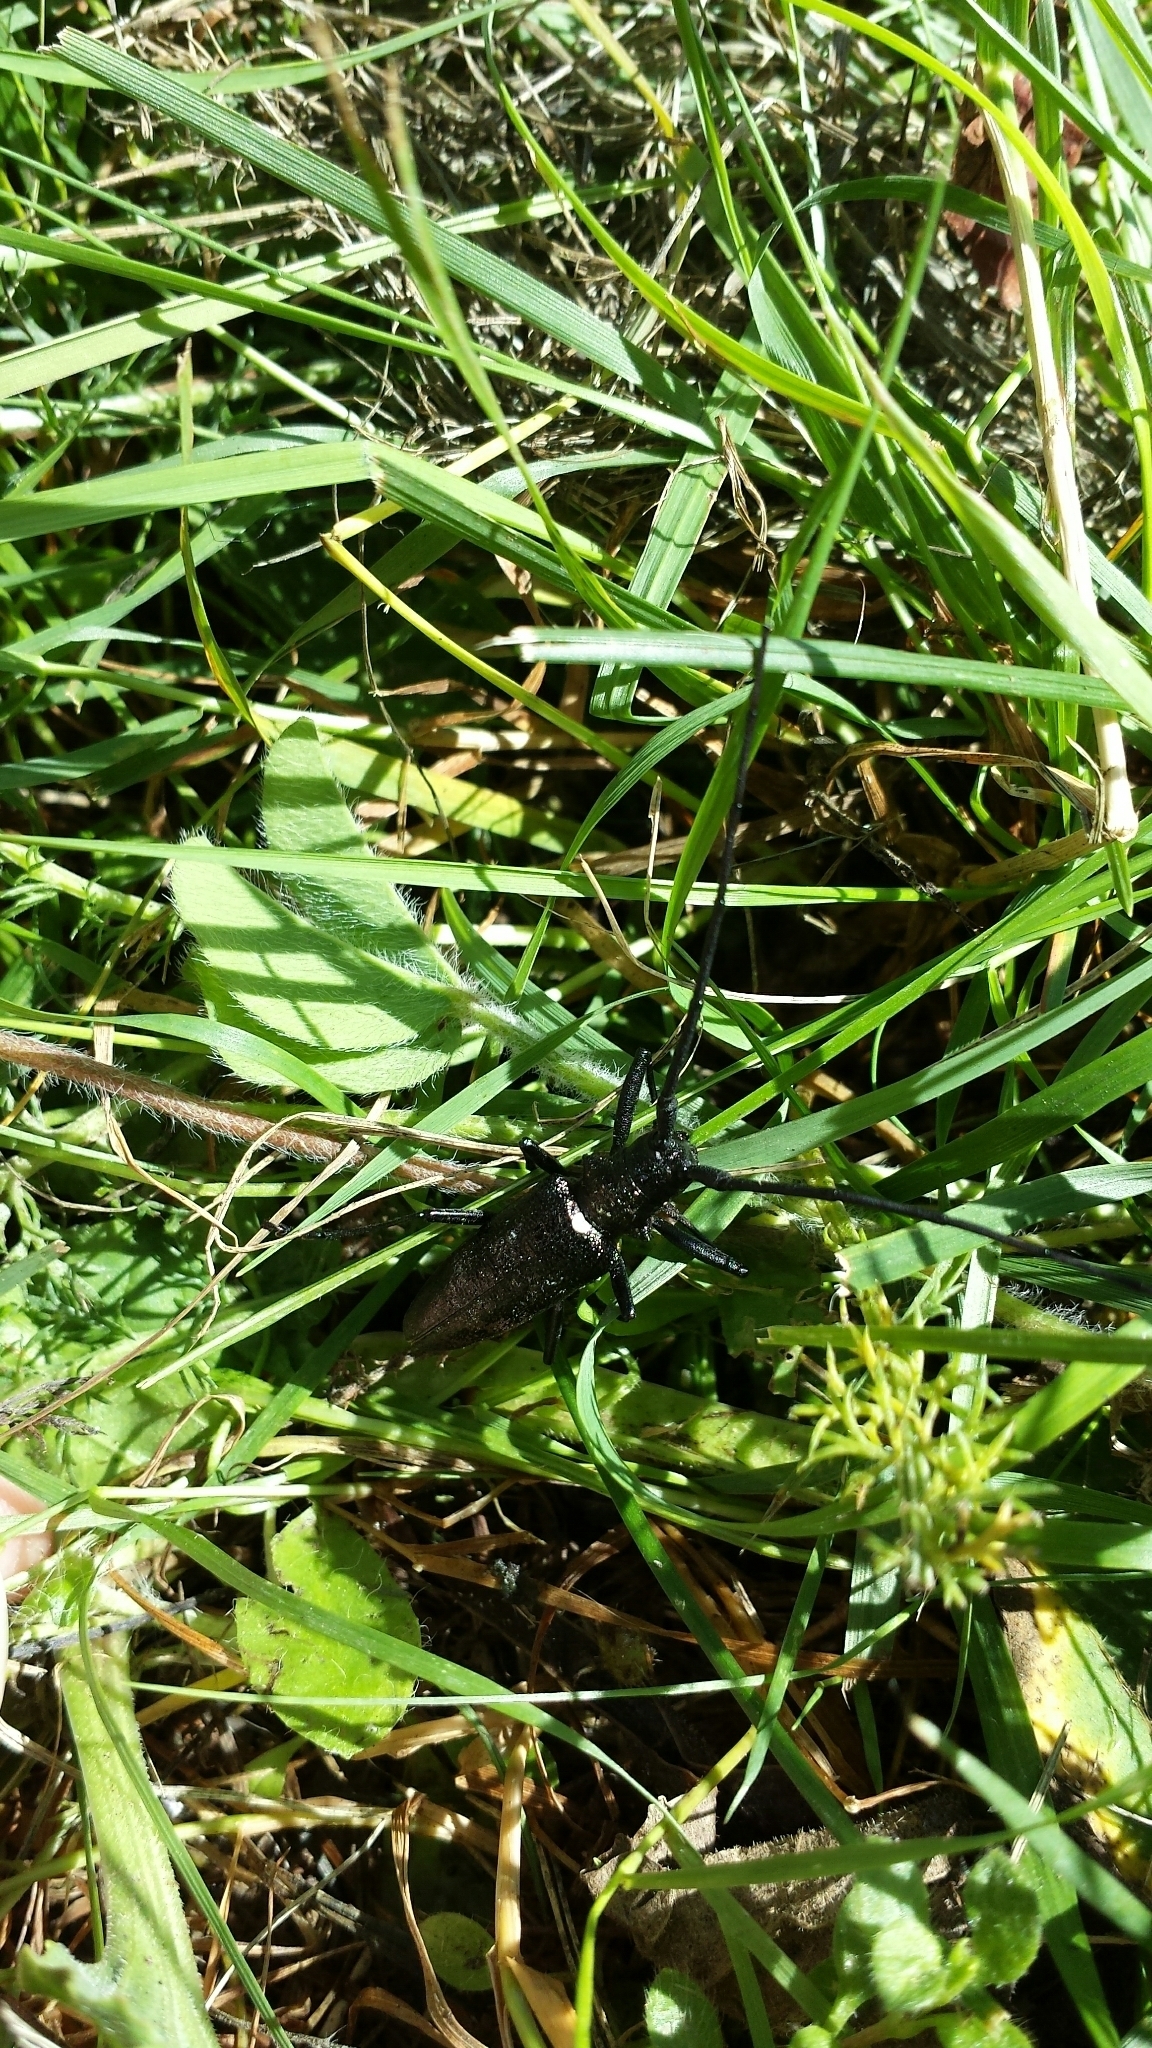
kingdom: Animalia
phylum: Arthropoda
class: Insecta
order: Coleoptera
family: Cerambycidae
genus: Monochamus
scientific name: Monochamus scutellatus
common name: White-spotted sawyer beetle
